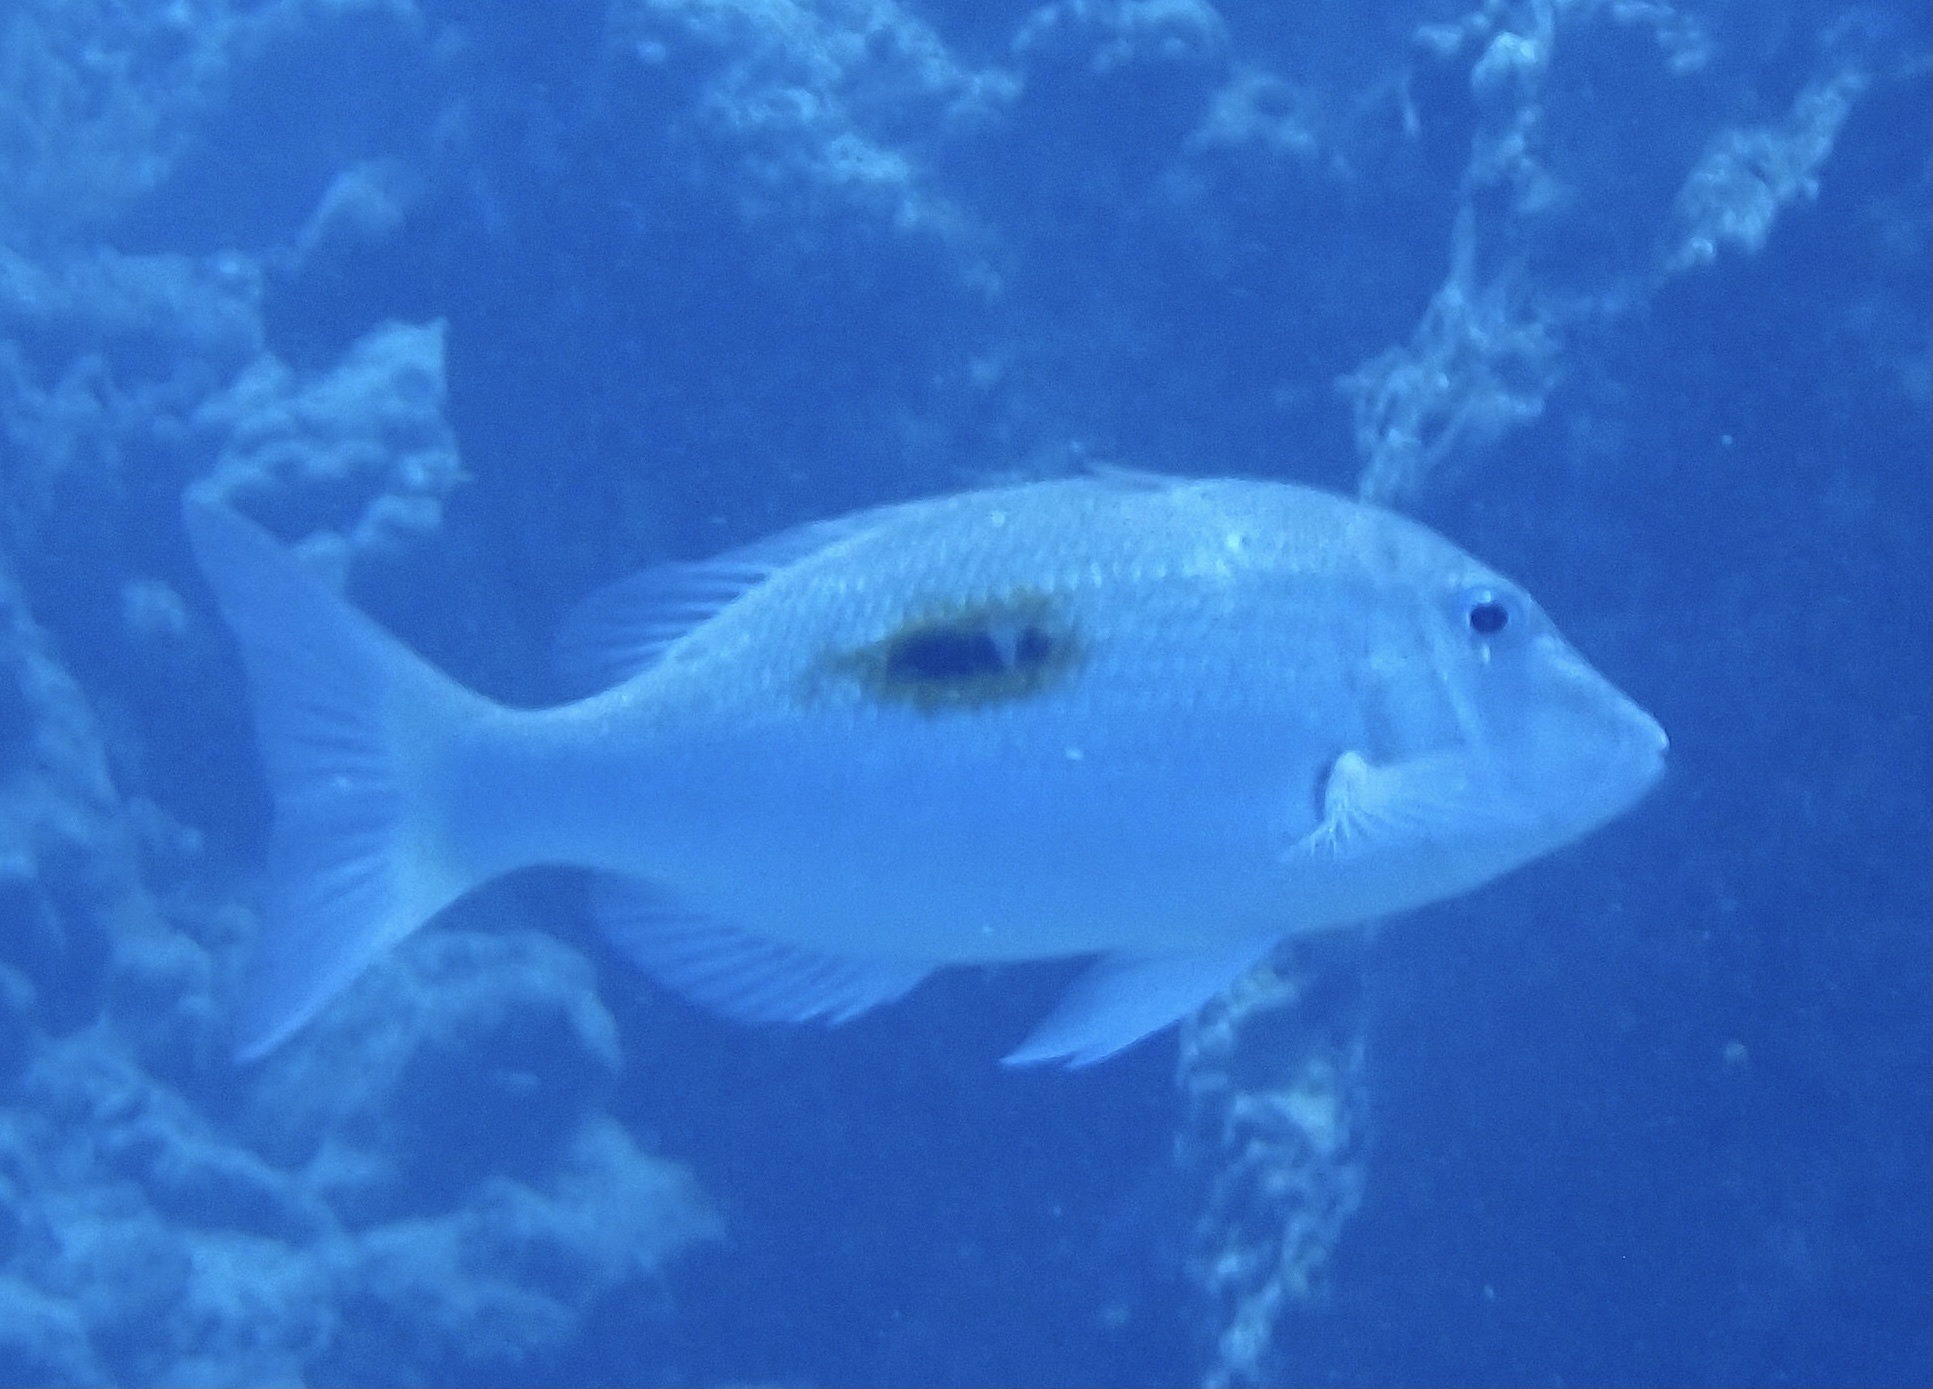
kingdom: Animalia
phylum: Chordata
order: Perciformes
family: Lethrinidae
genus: Lethrinus
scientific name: Lethrinus harak
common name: Blackspot emperor
